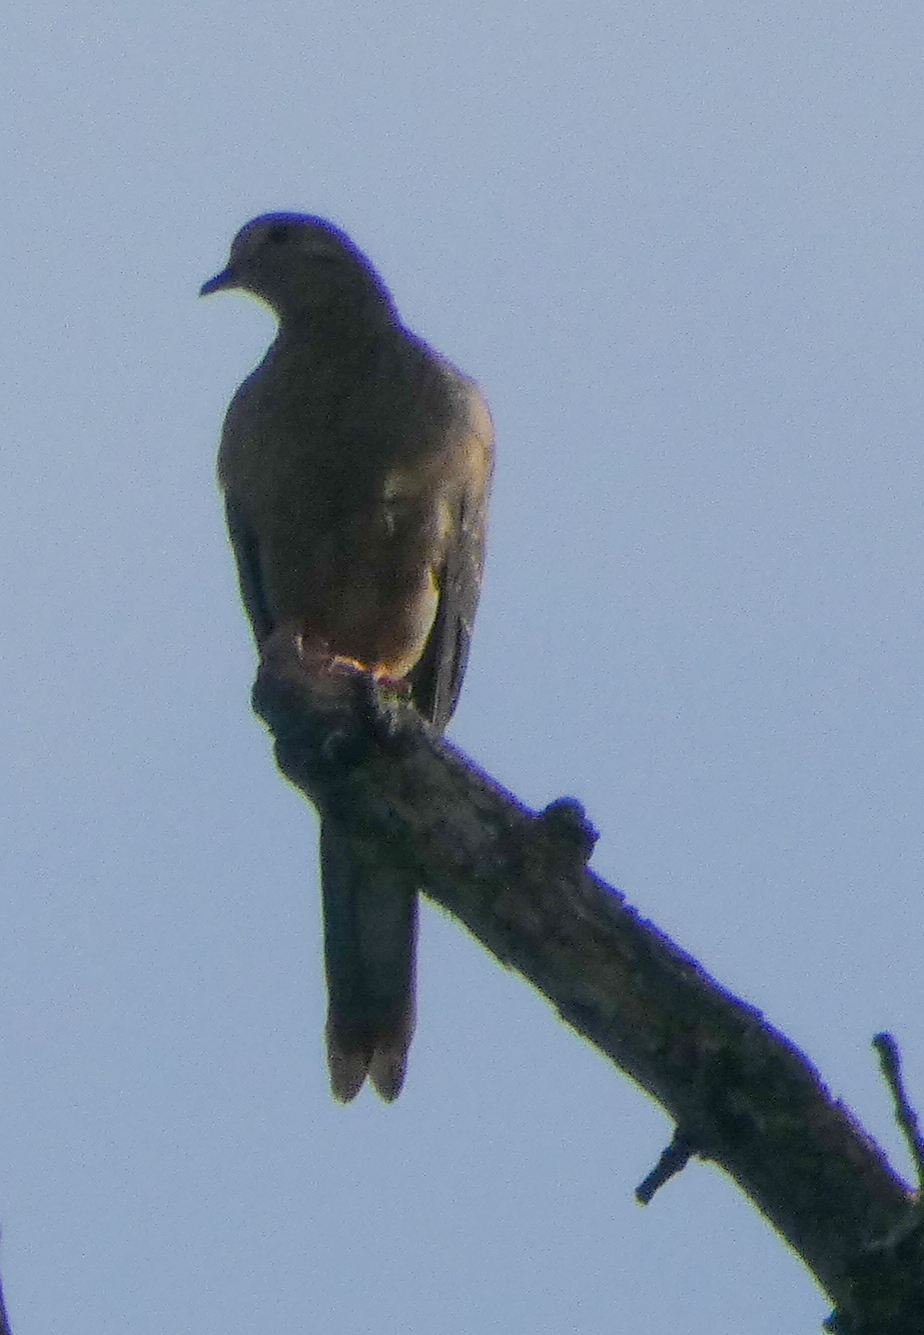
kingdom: Animalia
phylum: Chordata
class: Aves
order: Columbiformes
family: Columbidae
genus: Zenaida
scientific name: Zenaida macroura
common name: Mourning dove
